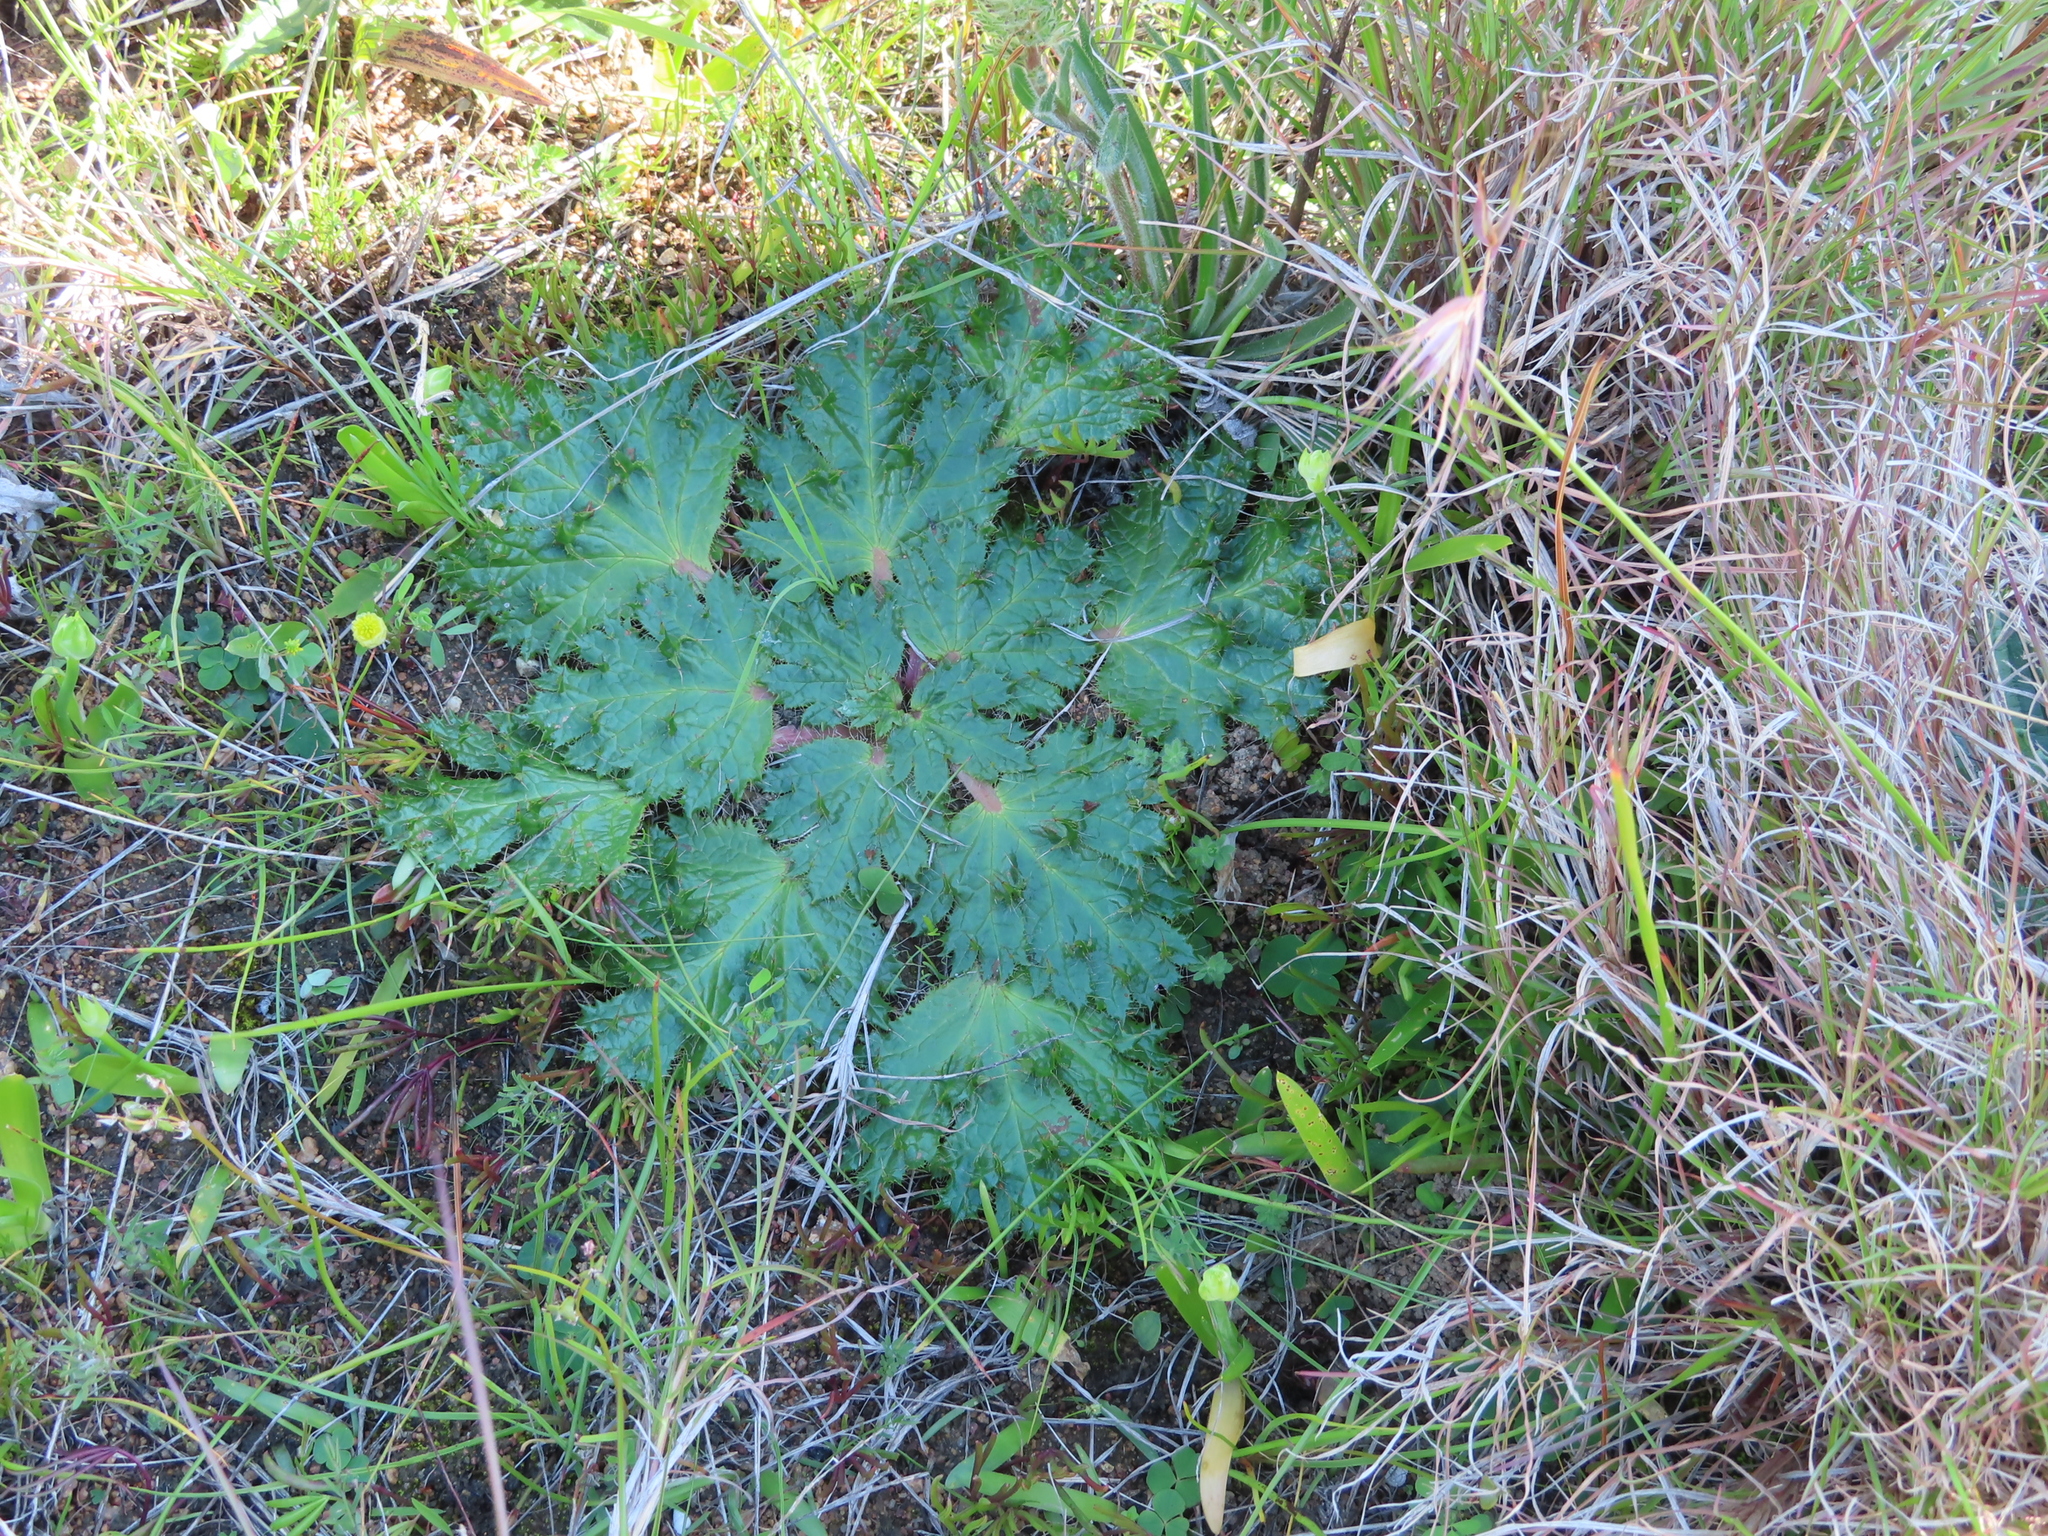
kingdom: Plantae
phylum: Tracheophyta
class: Magnoliopsida
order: Apiales
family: Apiaceae
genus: Arctopus
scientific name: Arctopus monacanthus
